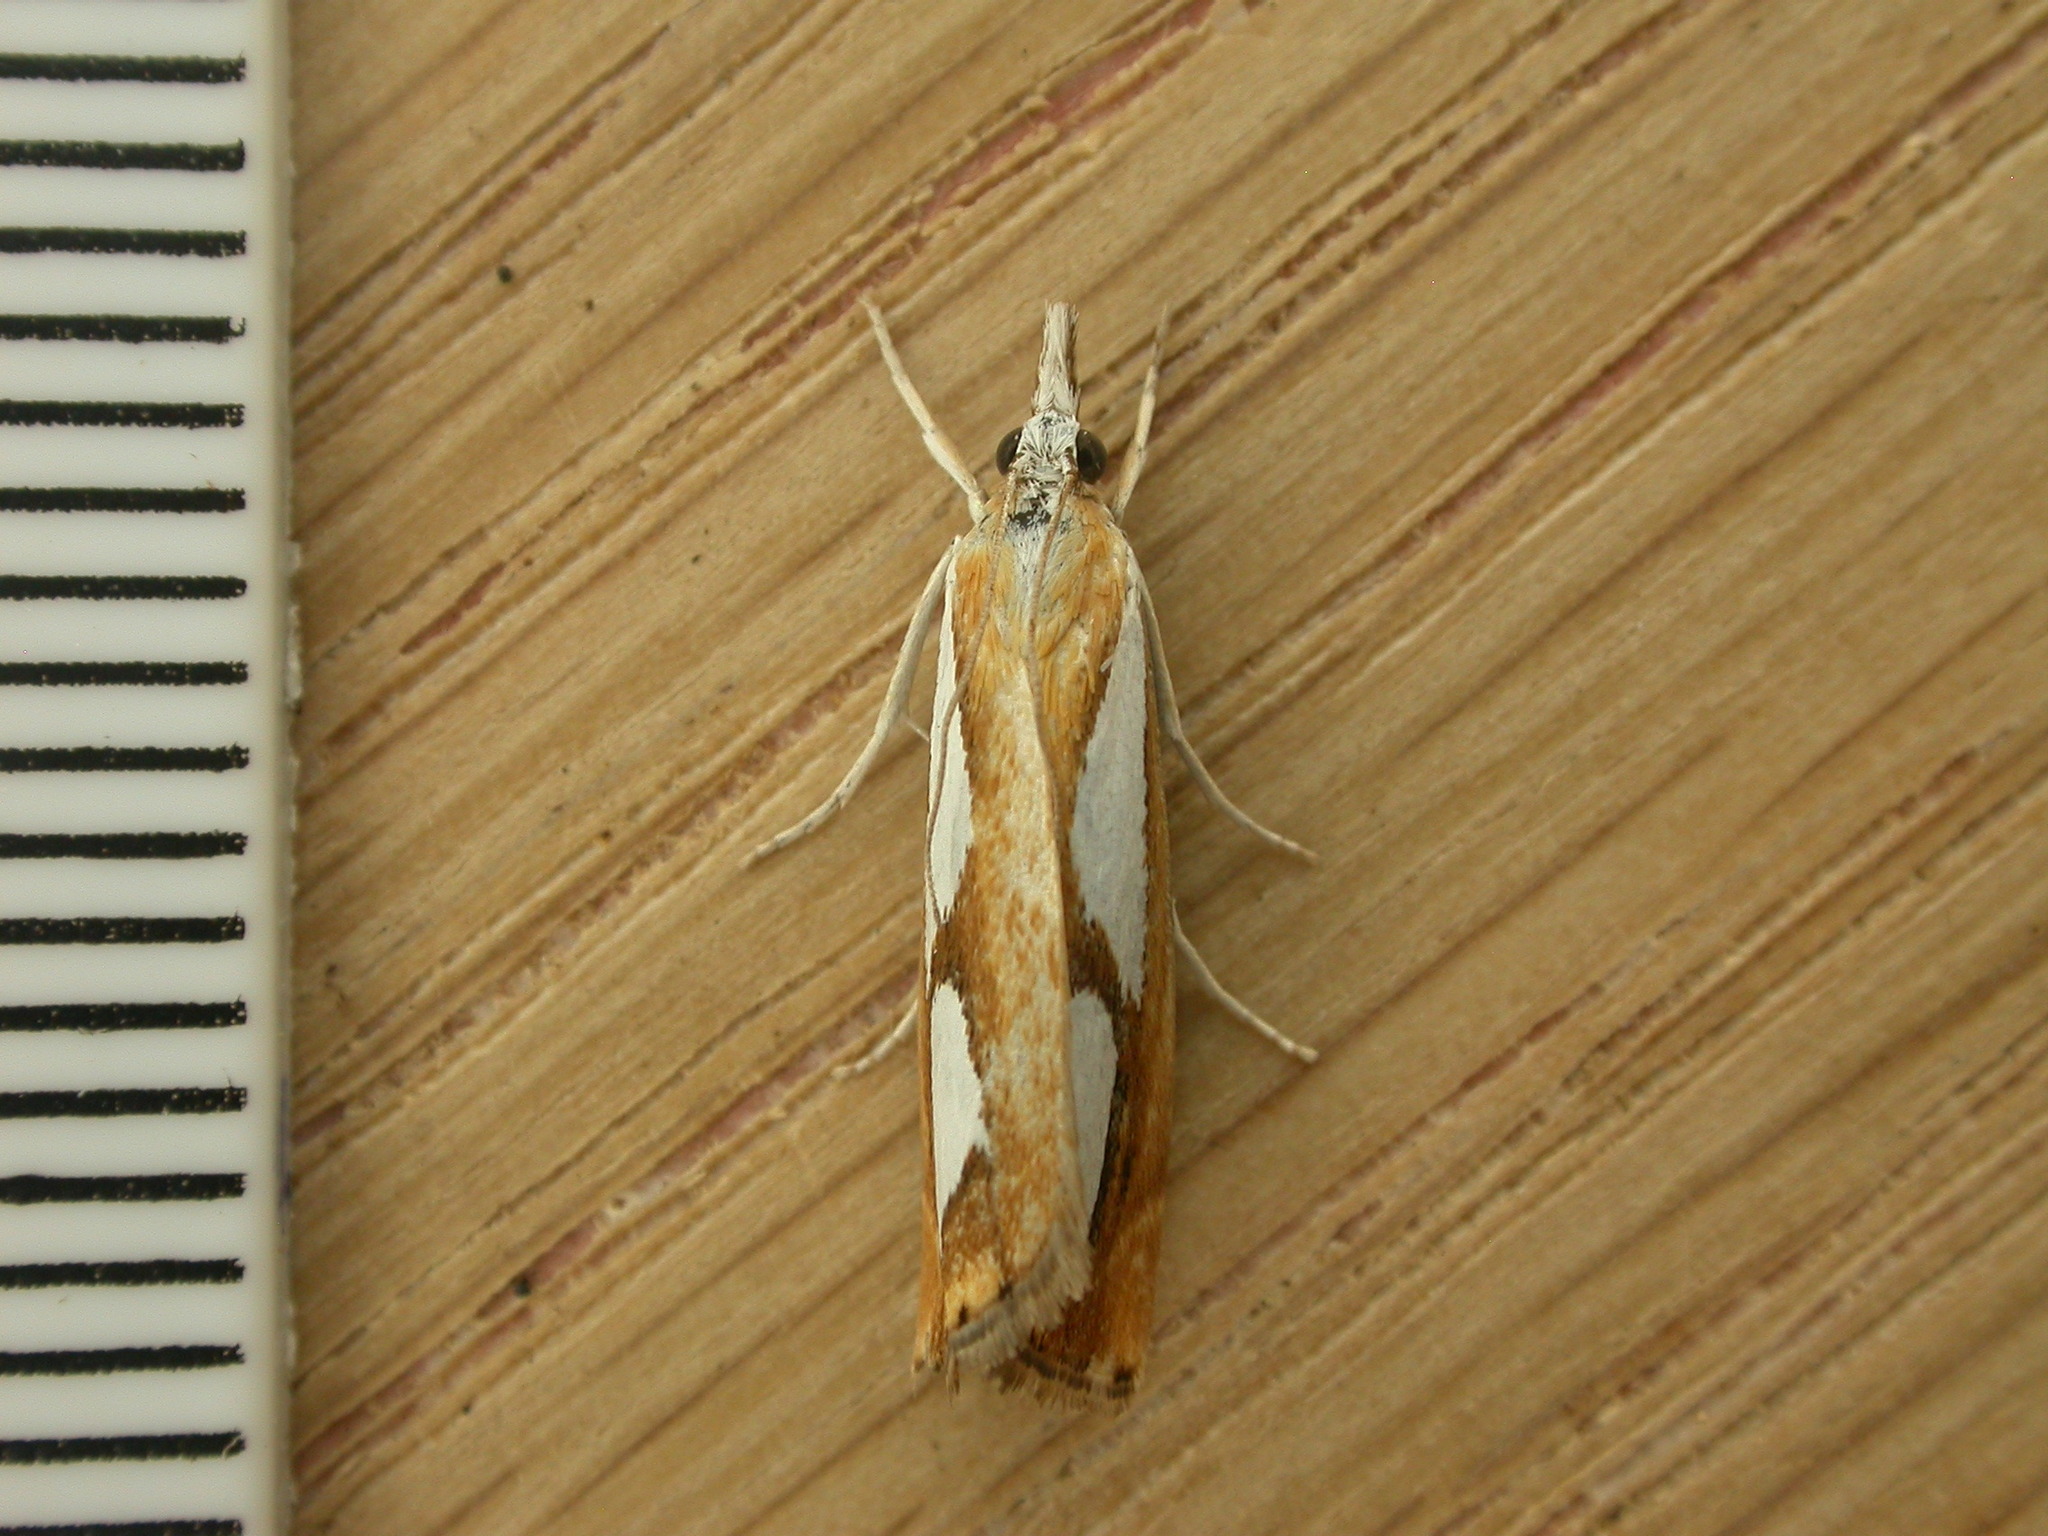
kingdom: Animalia
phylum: Arthropoda
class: Insecta
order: Lepidoptera
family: Crambidae
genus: Catoptria
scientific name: Catoptria pinella
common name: Pearl grass-veneer
